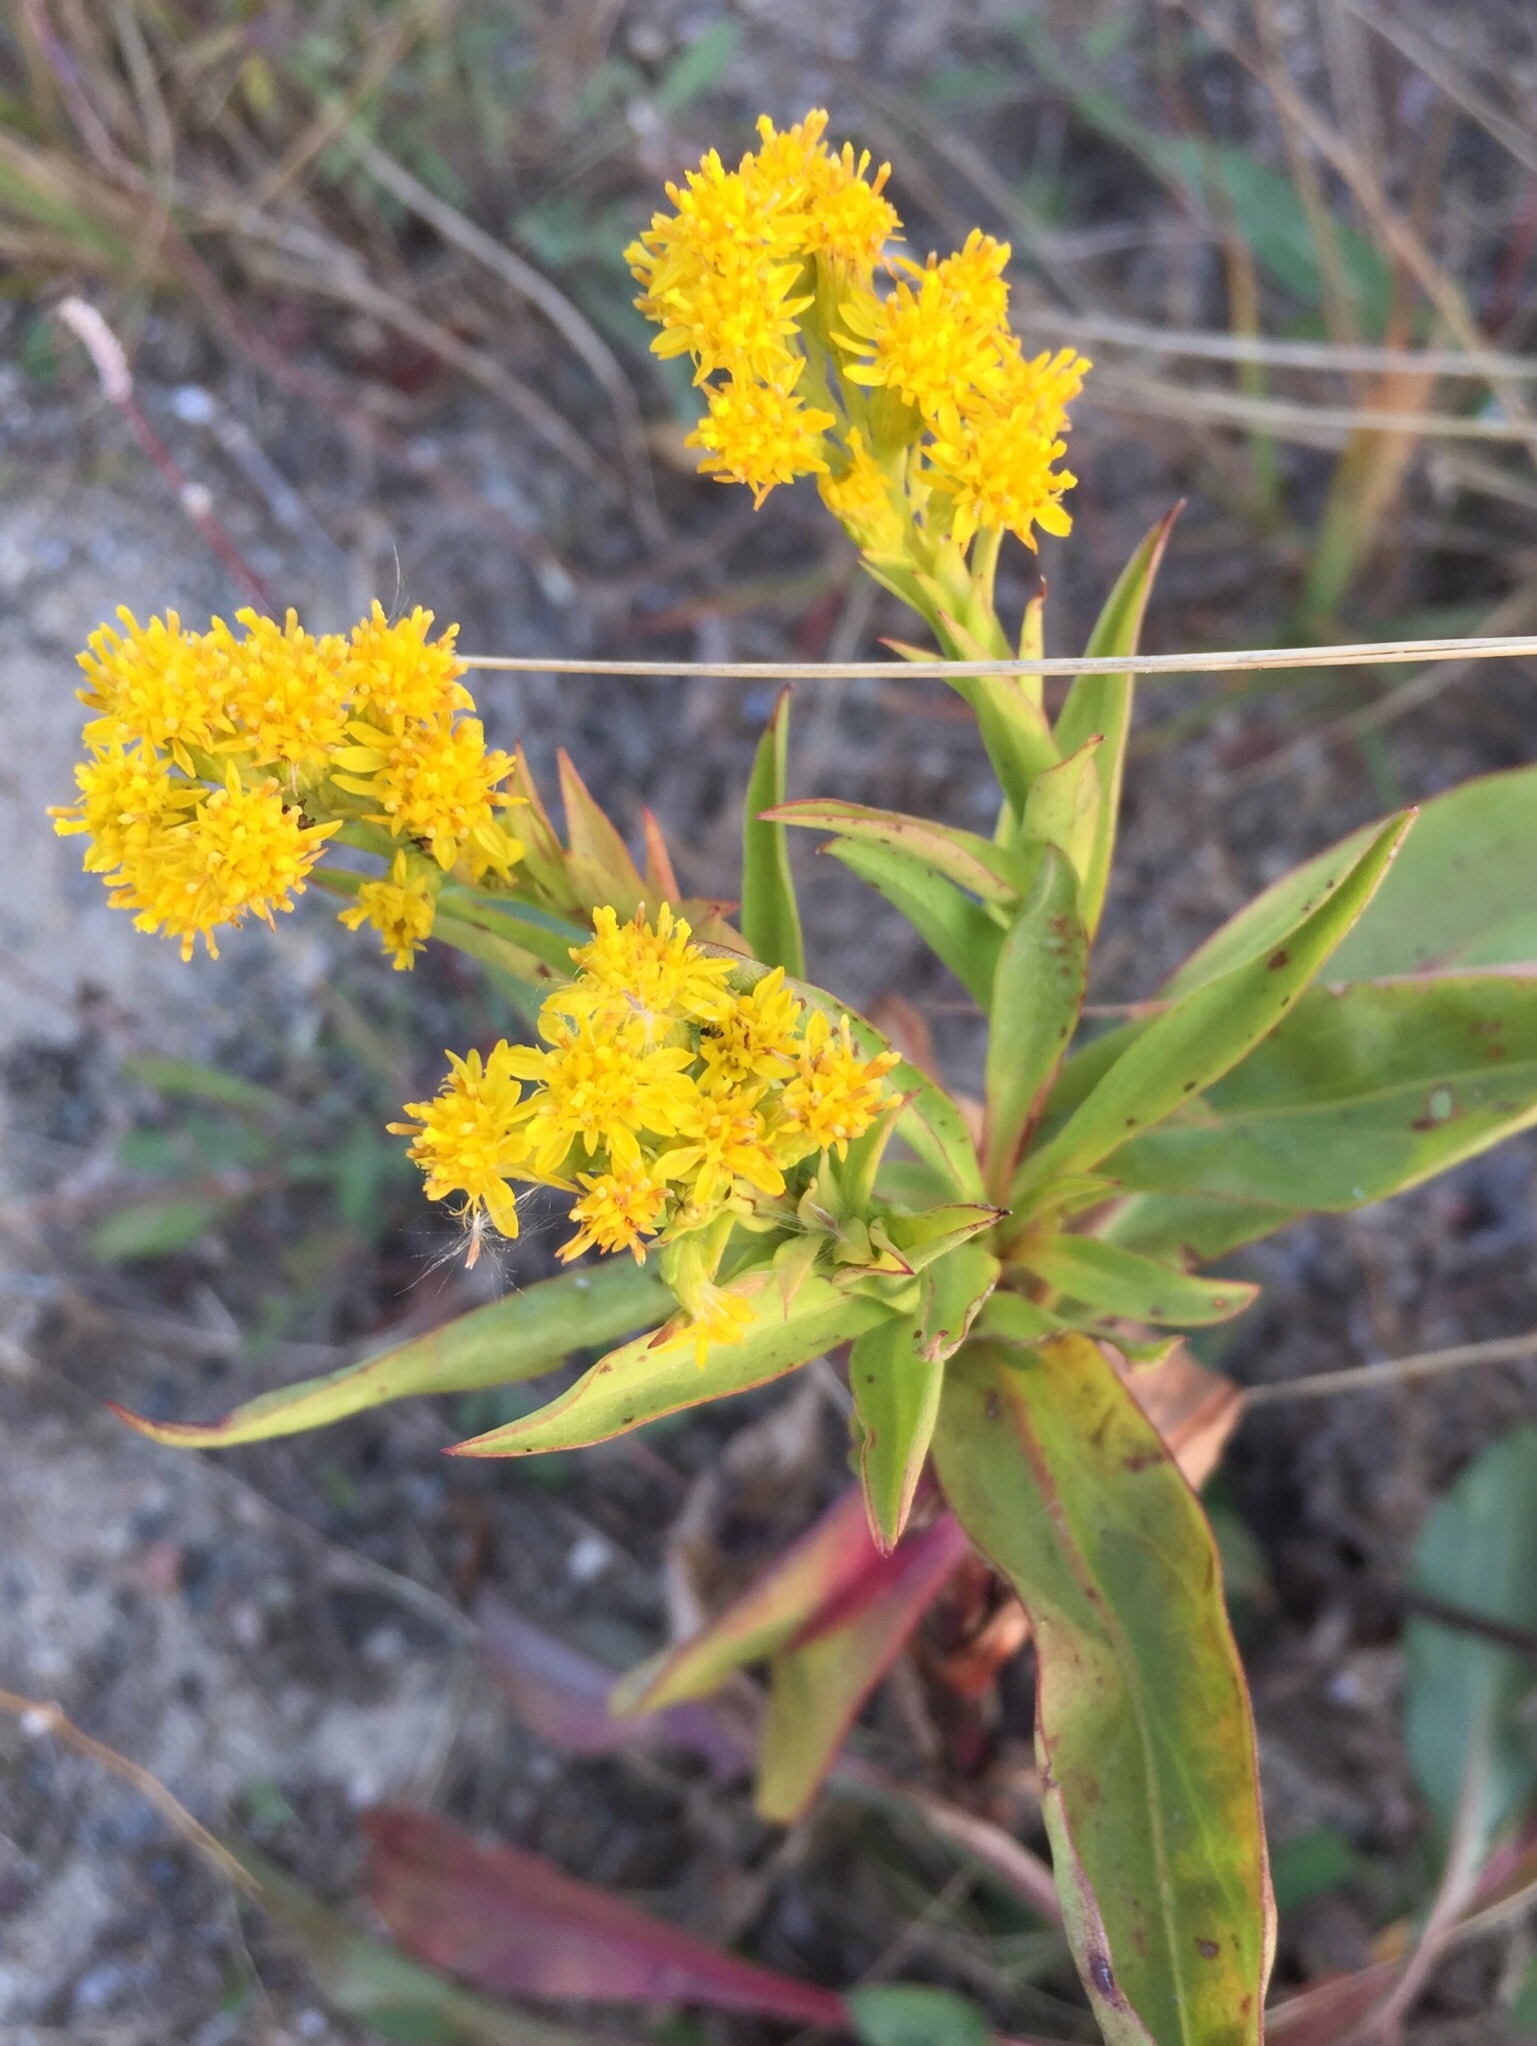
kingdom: Plantae
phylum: Tracheophyta
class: Magnoliopsida
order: Asterales
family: Asteraceae
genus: Solidago
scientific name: Solidago sempervirens
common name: Salt-marsh goldenrod
